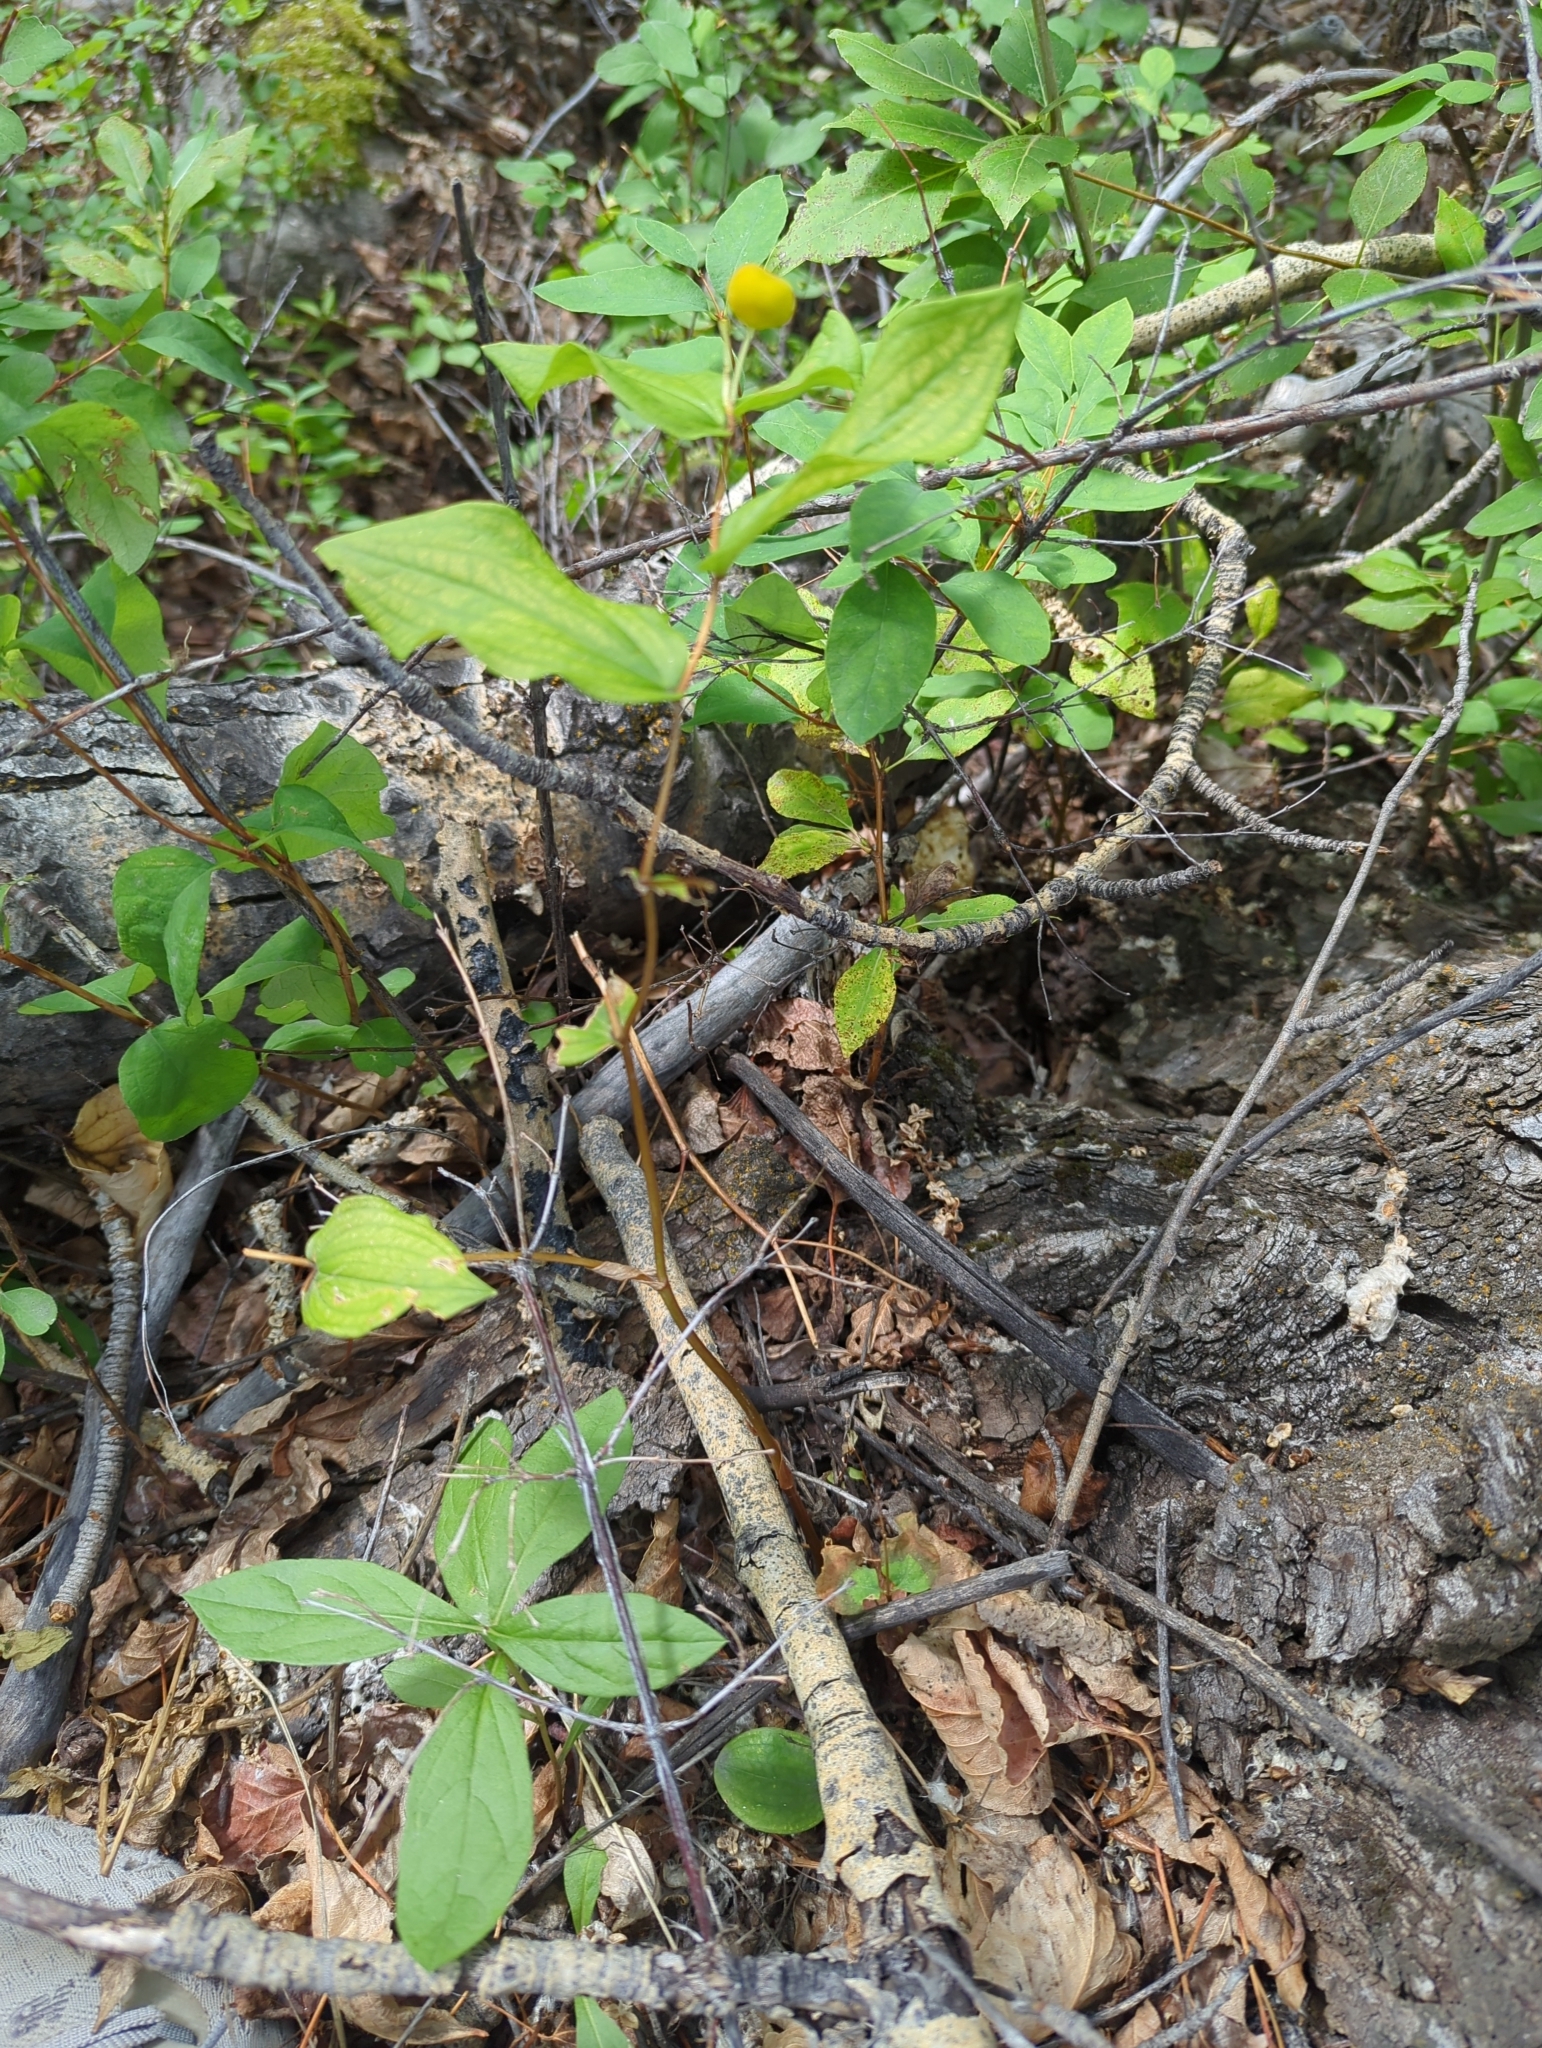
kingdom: Plantae
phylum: Tracheophyta
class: Liliopsida
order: Liliales
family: Liliaceae
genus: Prosartes
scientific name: Prosartes trachycarpa
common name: Rough-fruit fairy-bells
